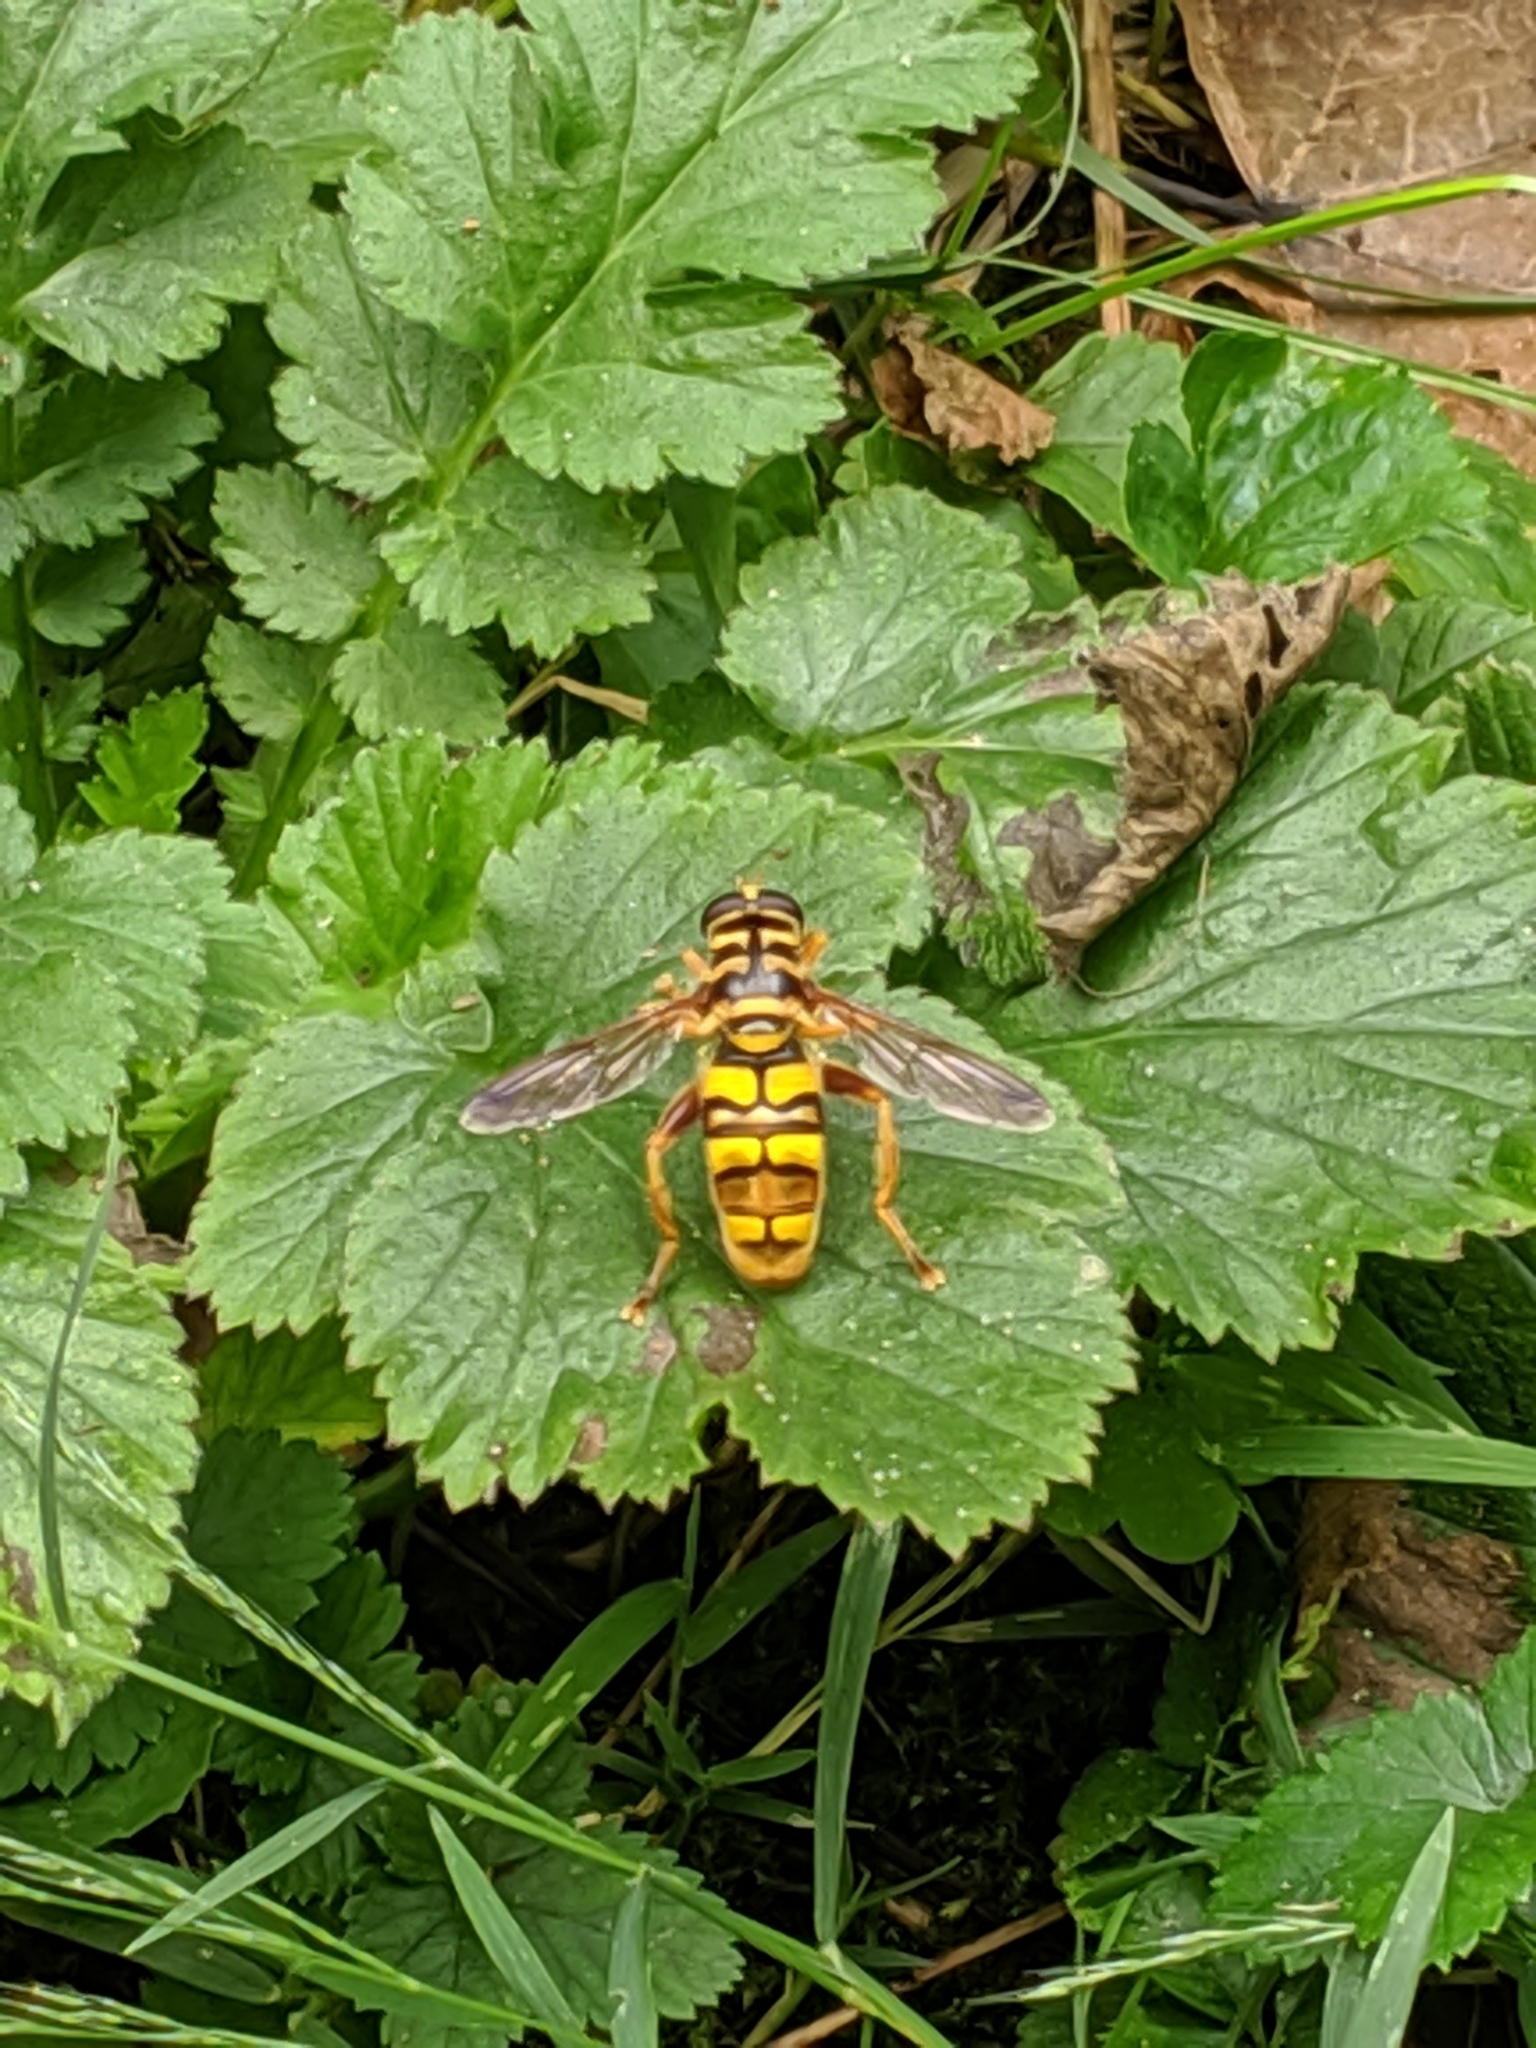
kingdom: Animalia
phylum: Arthropoda
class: Insecta
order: Diptera
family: Syrphidae
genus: Milesia
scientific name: Milesia virginiensis
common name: Virginia giant
